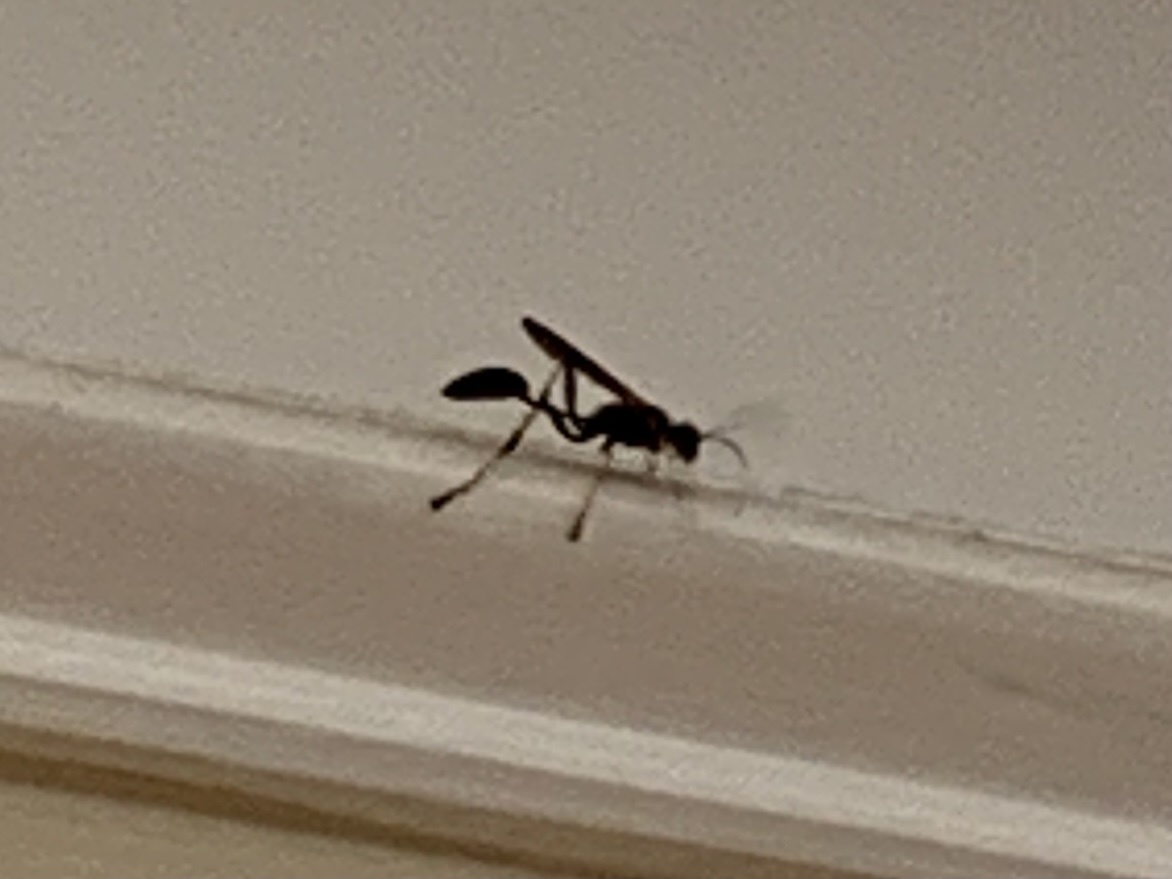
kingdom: Animalia
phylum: Arthropoda
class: Insecta
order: Hymenoptera
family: Sphecidae
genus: Sceliphron
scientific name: Sceliphron caementarium
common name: Mud dauber
